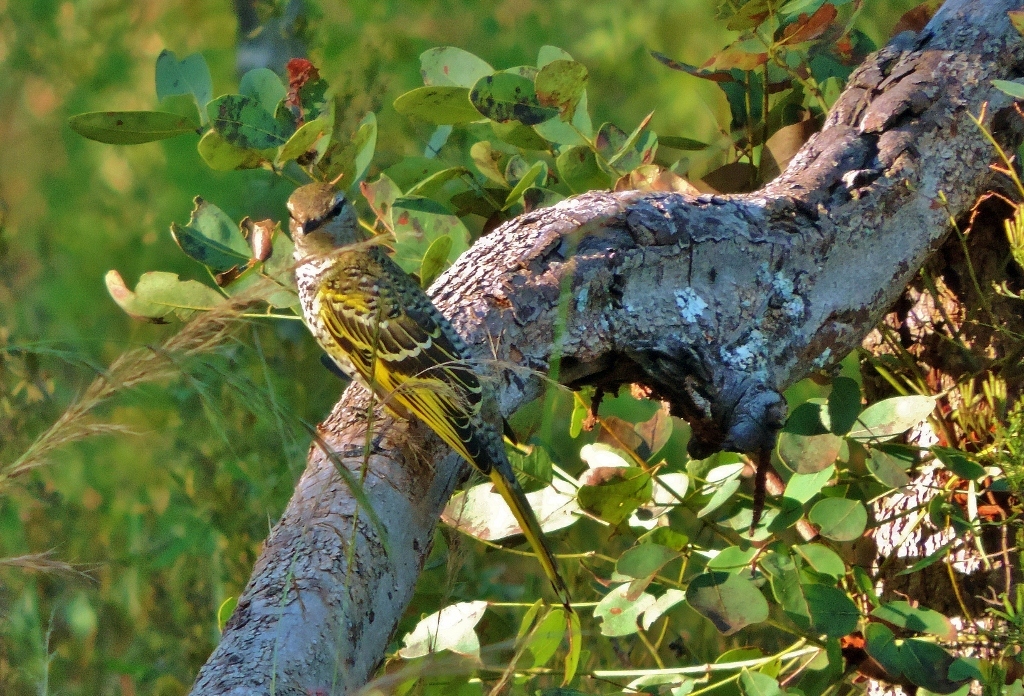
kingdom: Animalia
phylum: Chordata
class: Aves
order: Passeriformes
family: Campephagidae
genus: Campephaga
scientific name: Campephaga flava
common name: Black cuckooshrike
